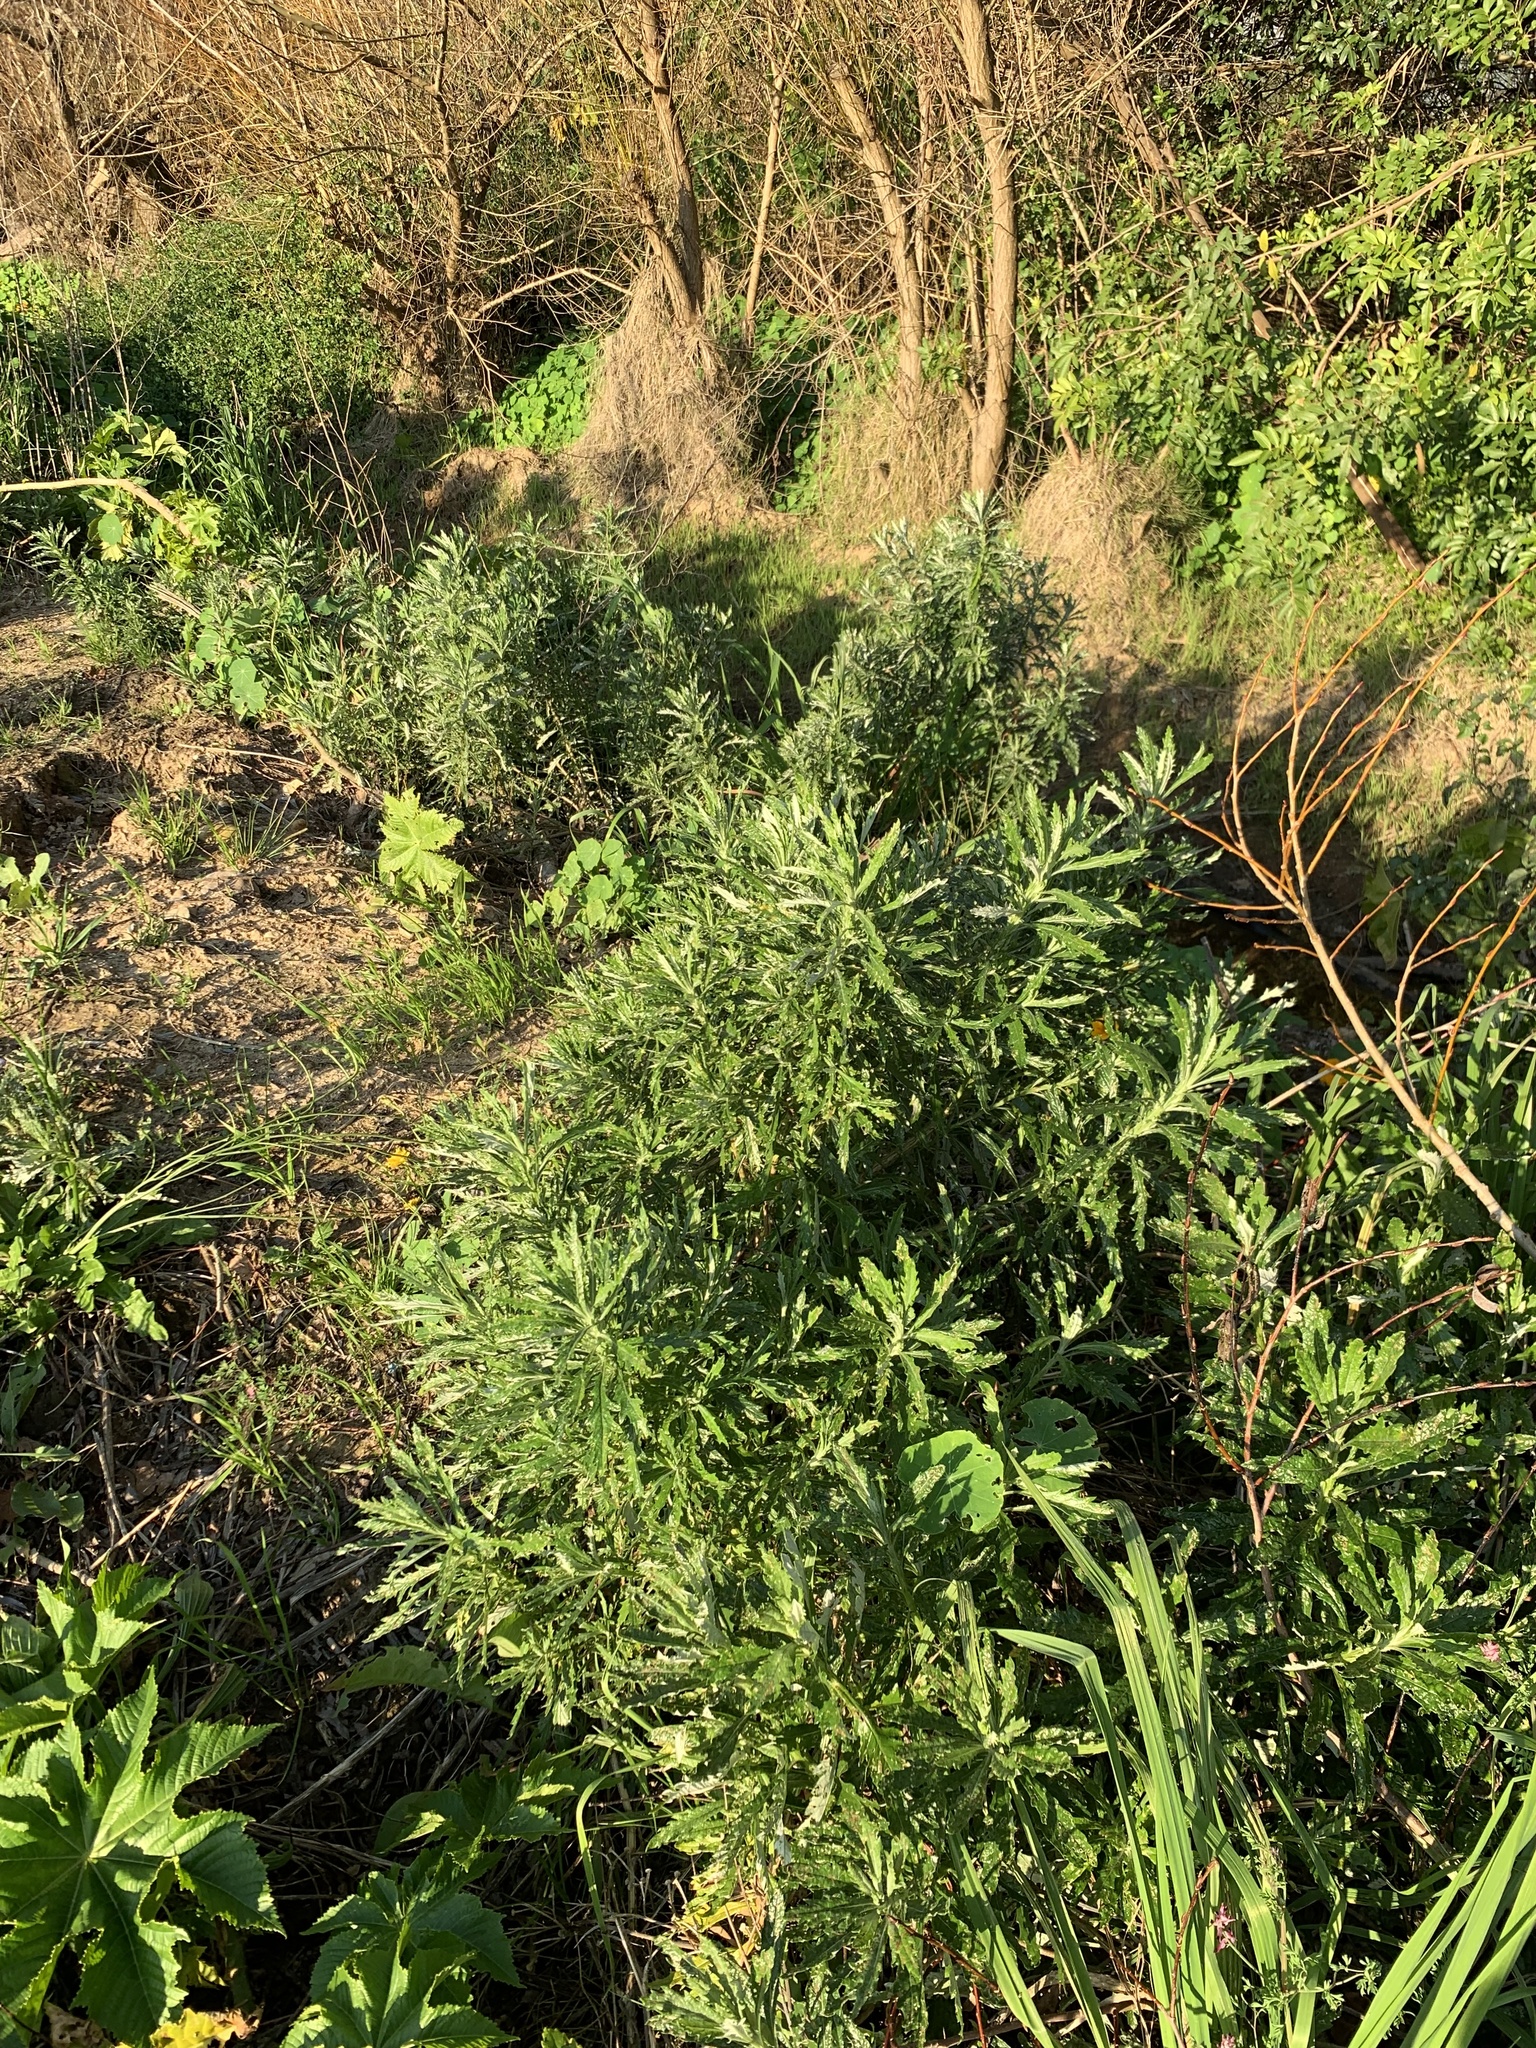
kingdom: Plantae
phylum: Tracheophyta
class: Magnoliopsida
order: Asterales
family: Asteraceae
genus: Senecio
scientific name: Senecio pterophorus
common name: Shoddy ragwort
